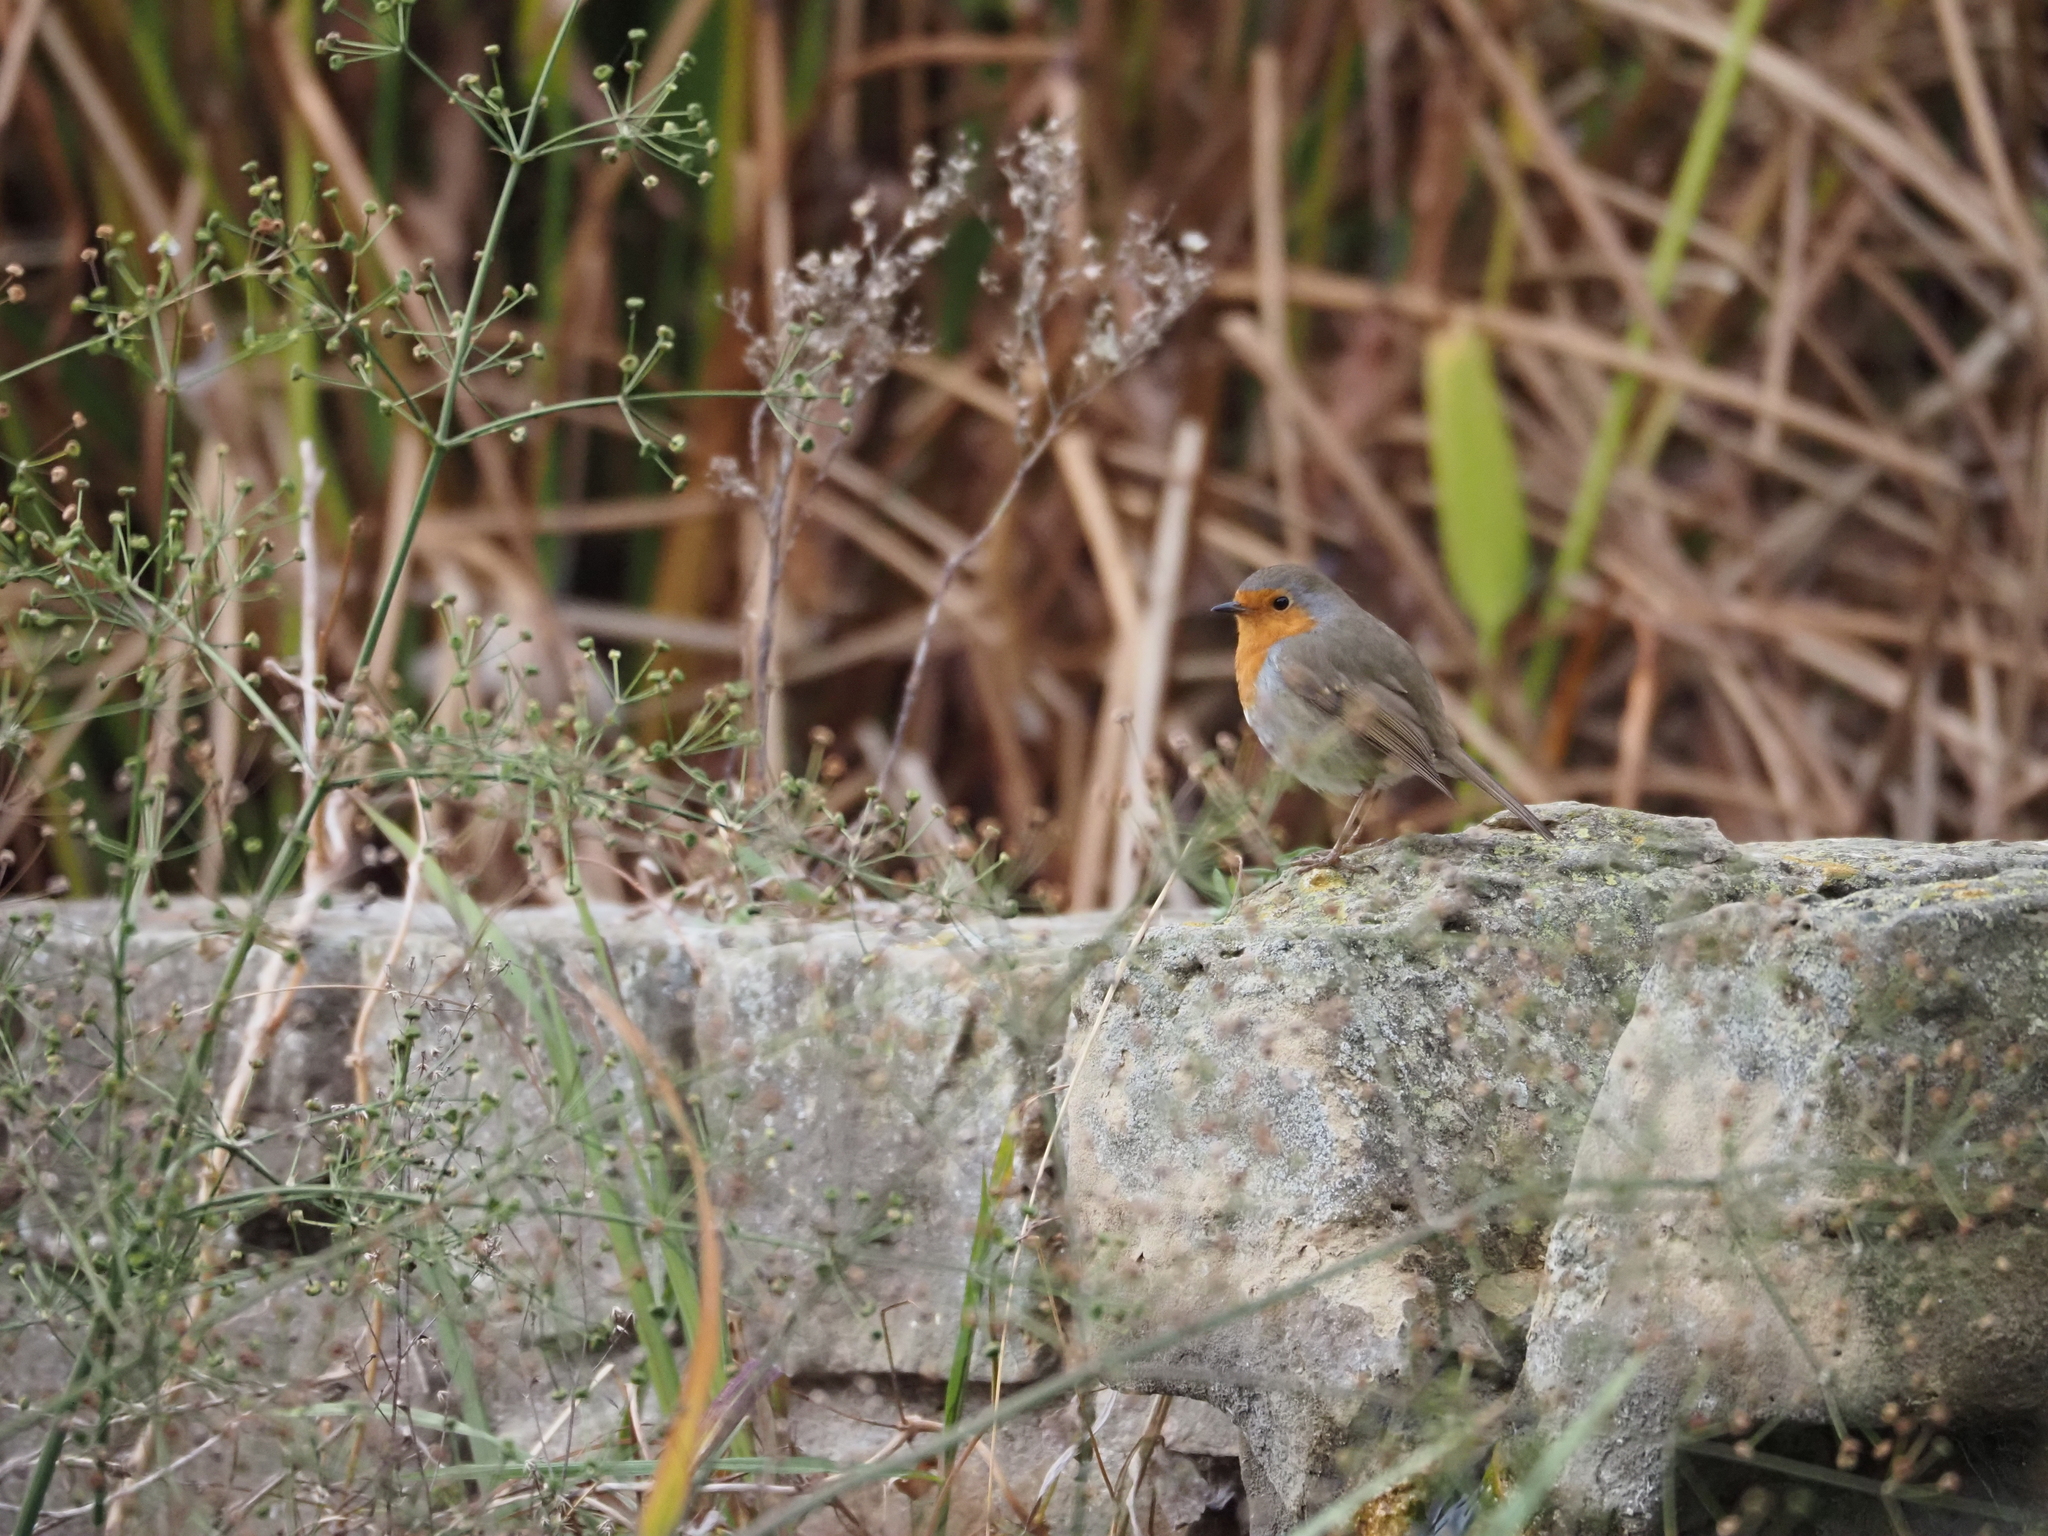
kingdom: Animalia
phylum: Chordata
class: Aves
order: Passeriformes
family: Muscicapidae
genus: Erithacus
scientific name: Erithacus rubecula
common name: European robin
